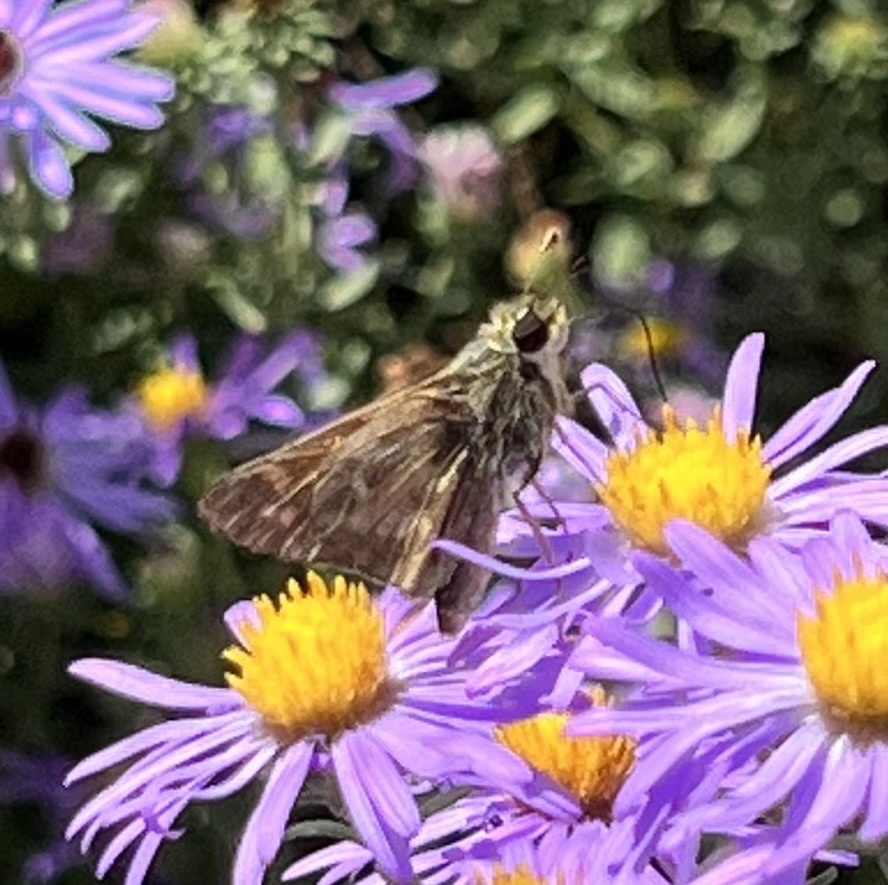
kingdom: Animalia
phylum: Arthropoda
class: Insecta
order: Lepidoptera
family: Hesperiidae
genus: Atalopedes
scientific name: Atalopedes
